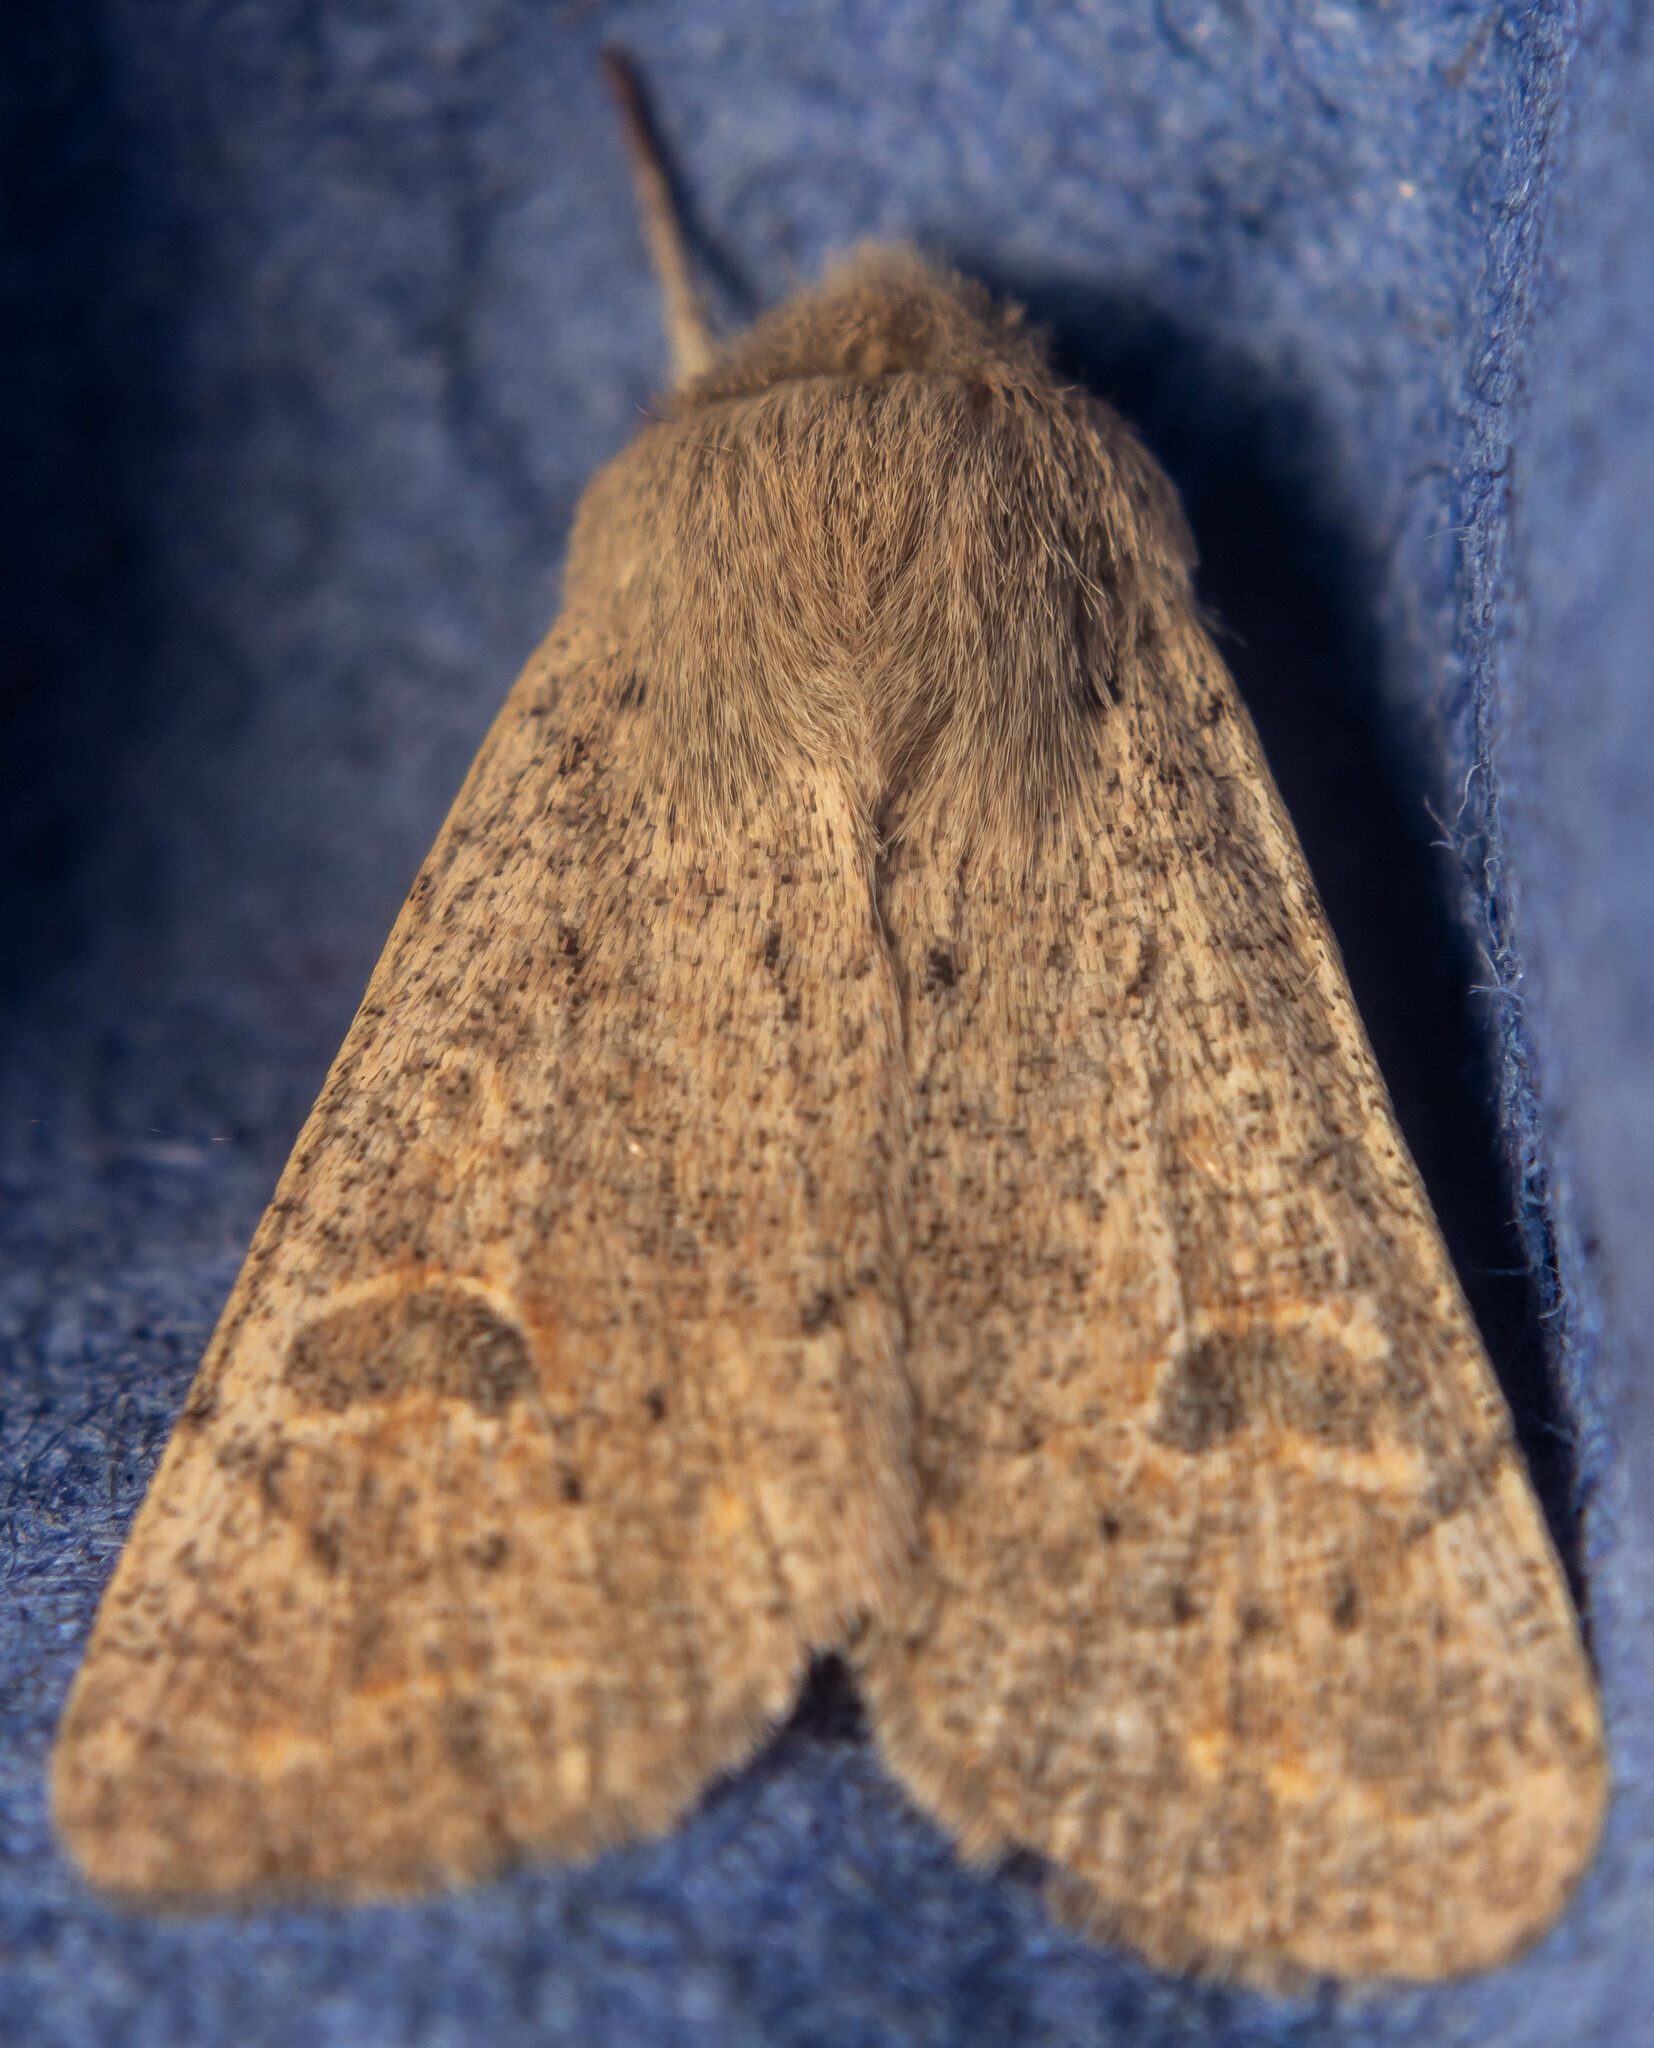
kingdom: Animalia
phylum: Arthropoda
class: Insecta
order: Lepidoptera
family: Noctuidae
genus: Orthosia
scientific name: Orthosia cruda
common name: Small quaker
